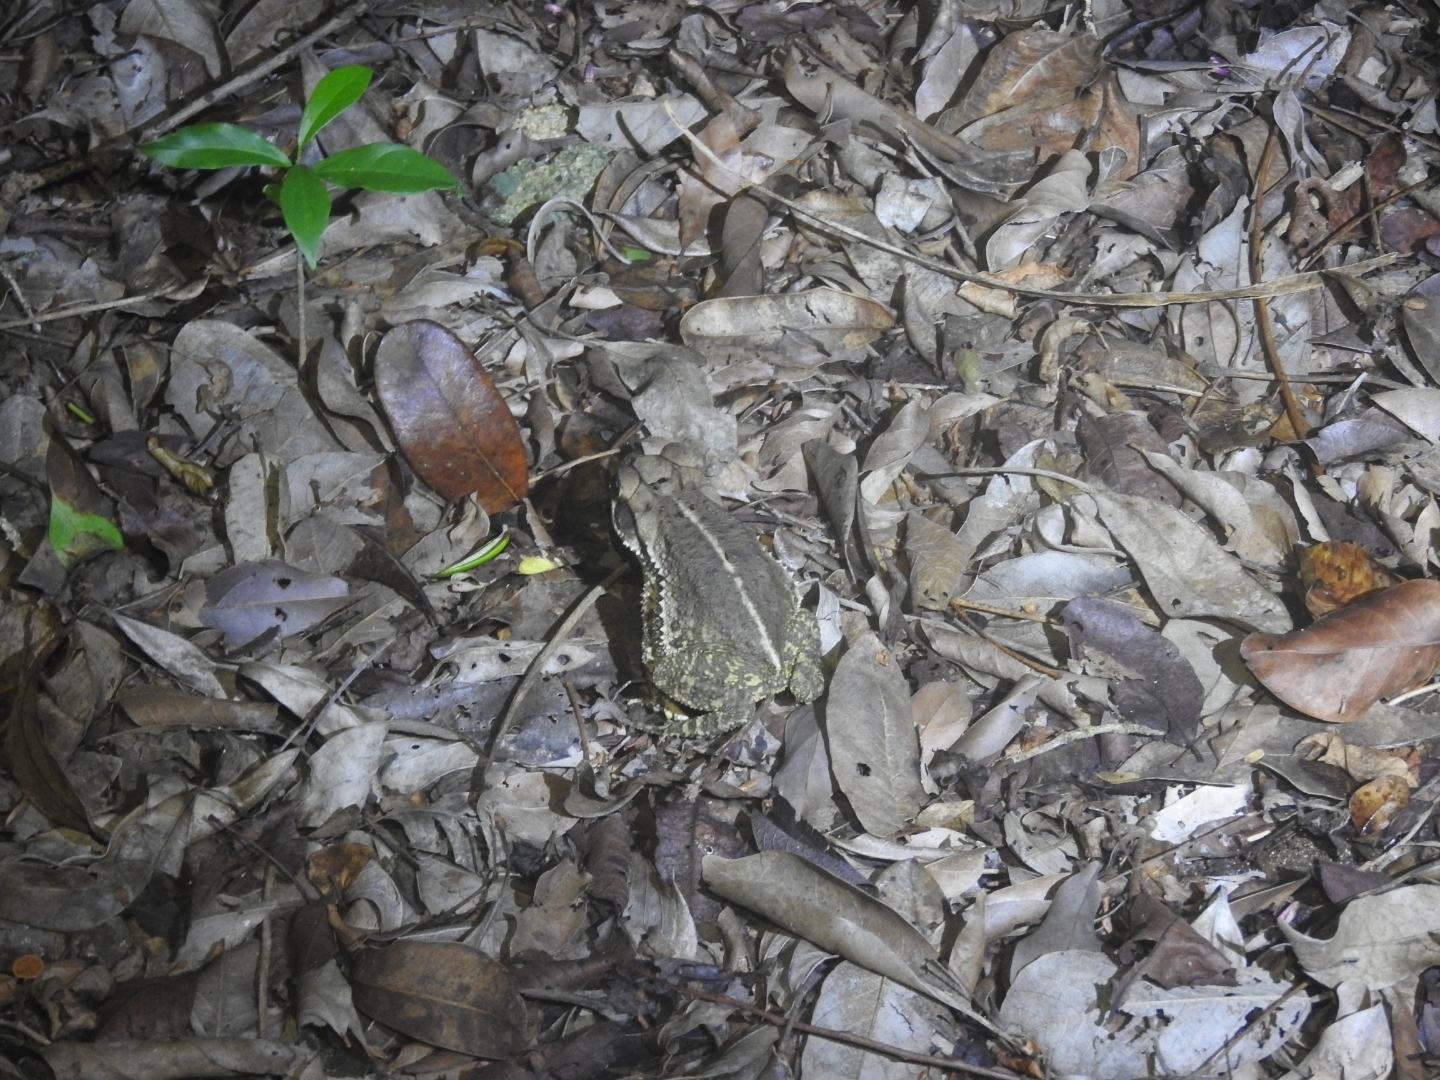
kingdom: Animalia
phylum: Chordata
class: Amphibia
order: Anura
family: Bufonidae
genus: Incilius
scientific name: Incilius valliceps
